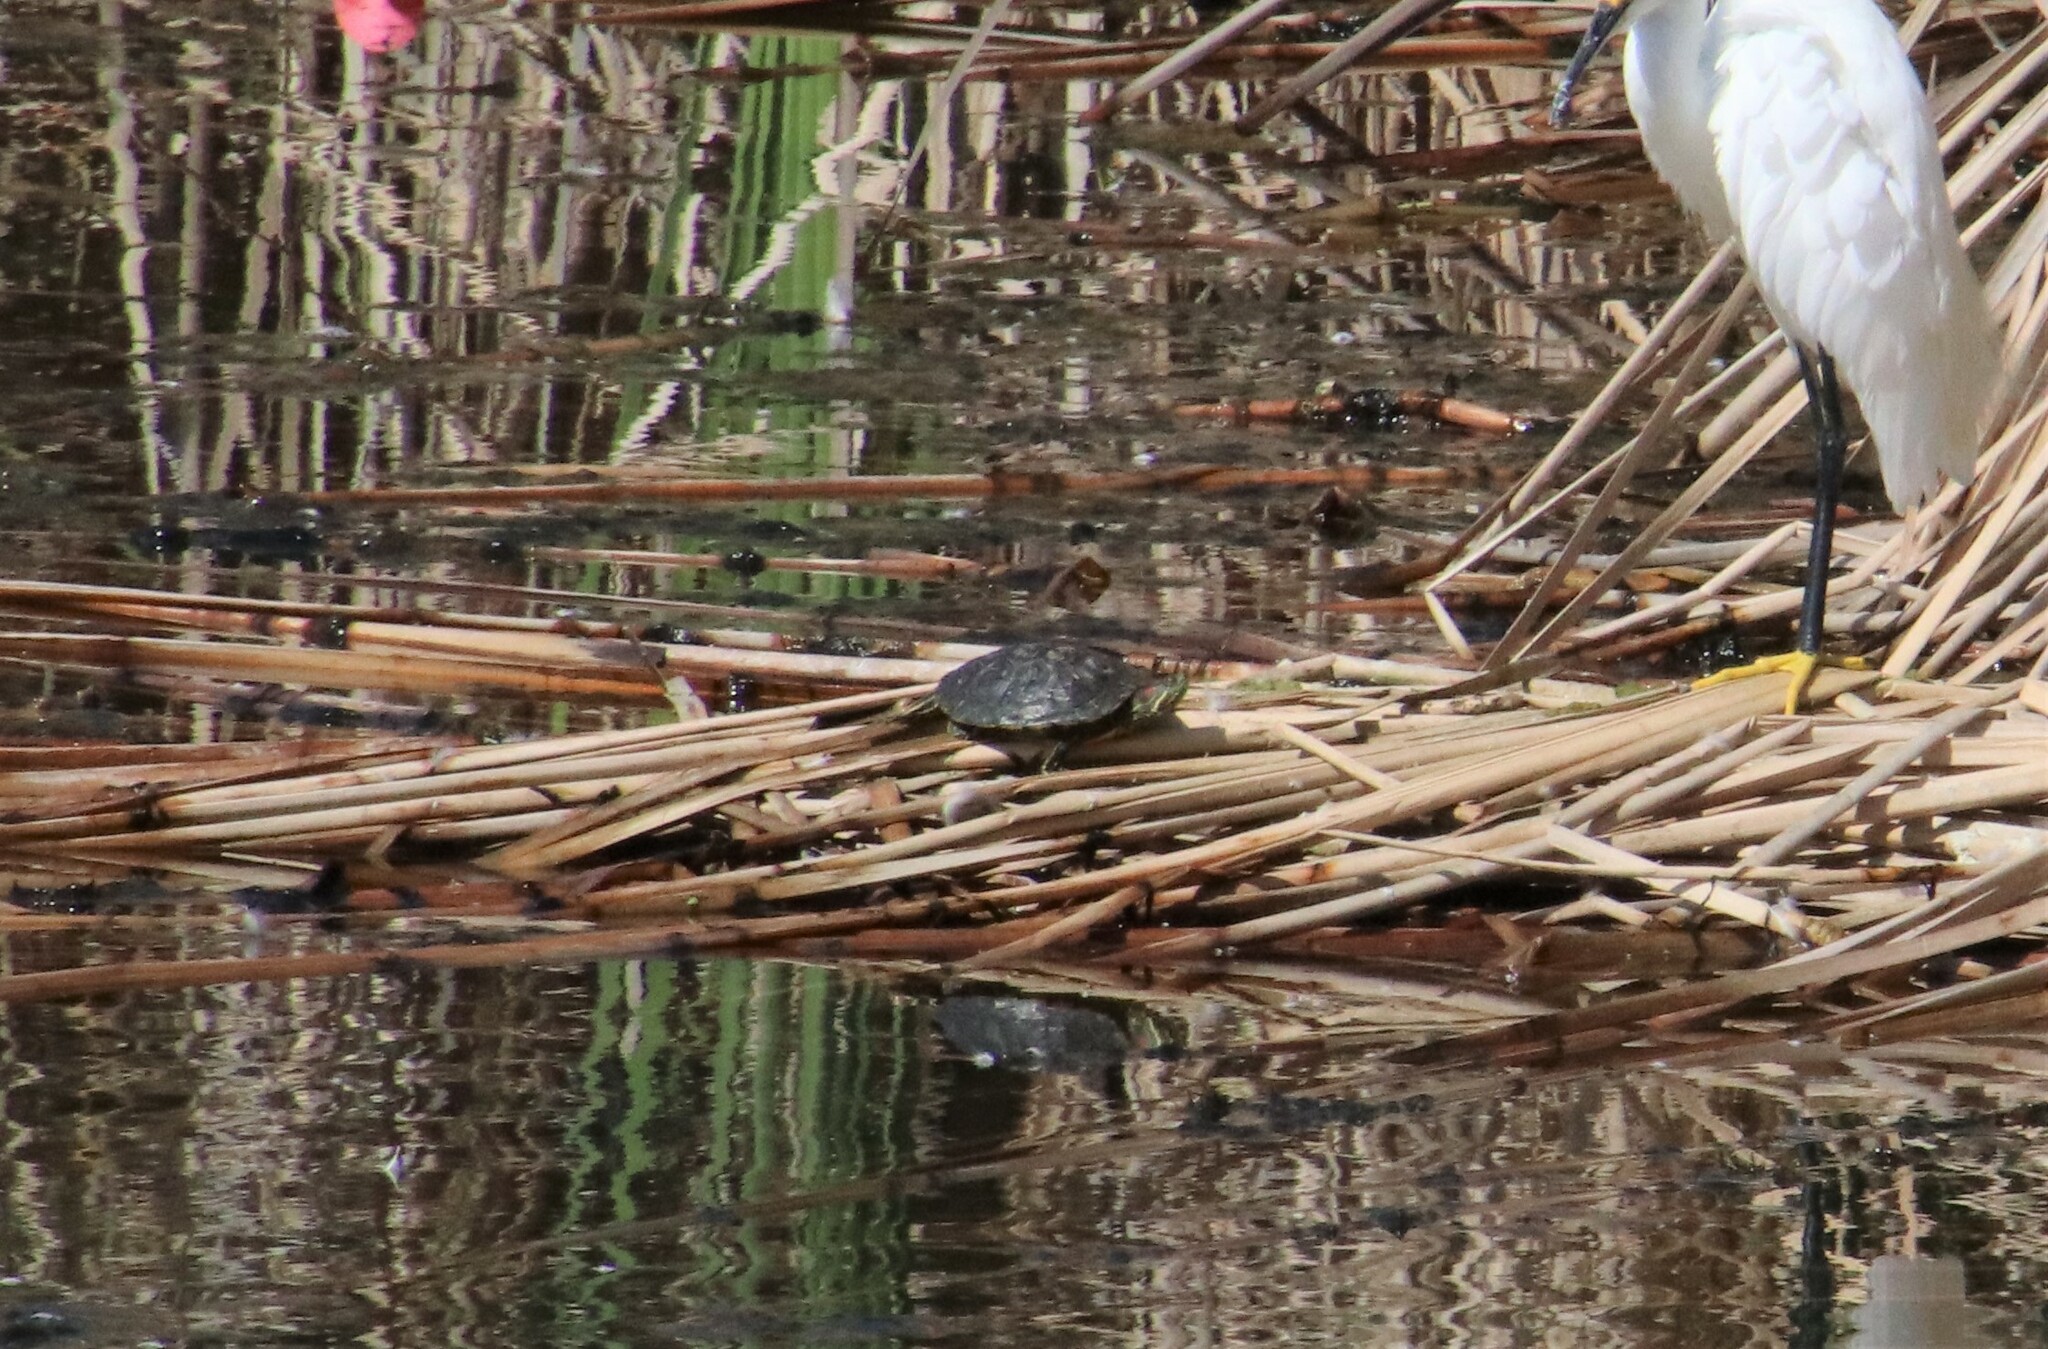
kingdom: Animalia
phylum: Chordata
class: Testudines
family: Emydidae
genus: Trachemys
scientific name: Trachemys scripta
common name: Slider
